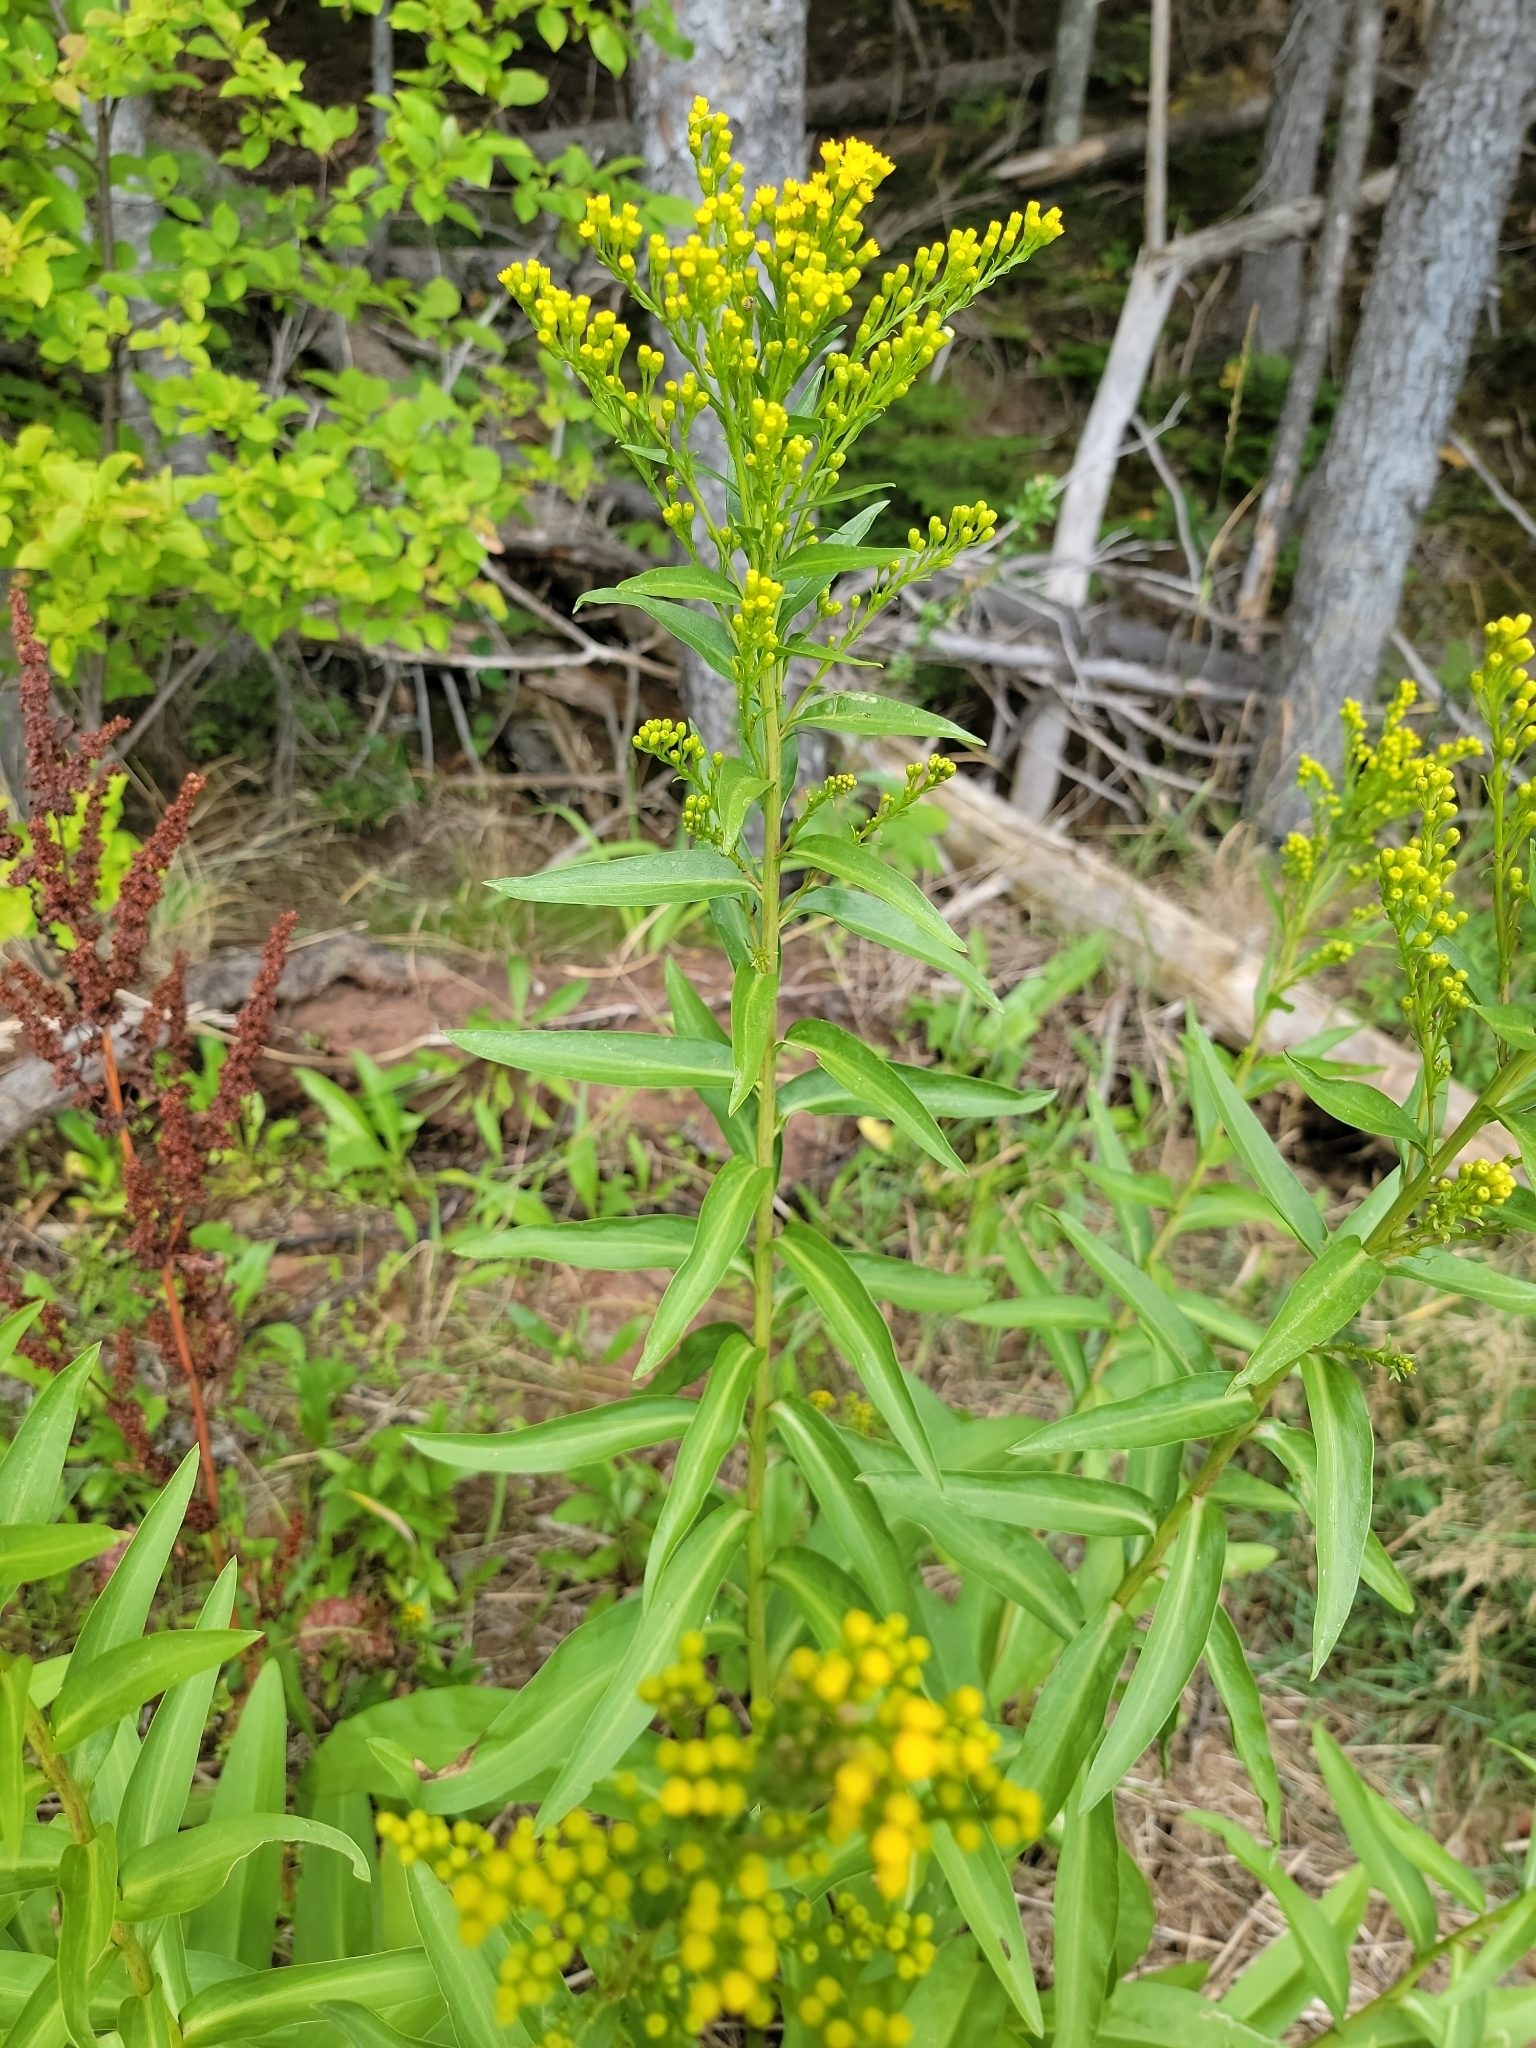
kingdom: Plantae
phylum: Tracheophyta
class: Magnoliopsida
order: Asterales
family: Asteraceae
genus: Solidago
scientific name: Solidago sempervirens
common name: Salt-marsh goldenrod
